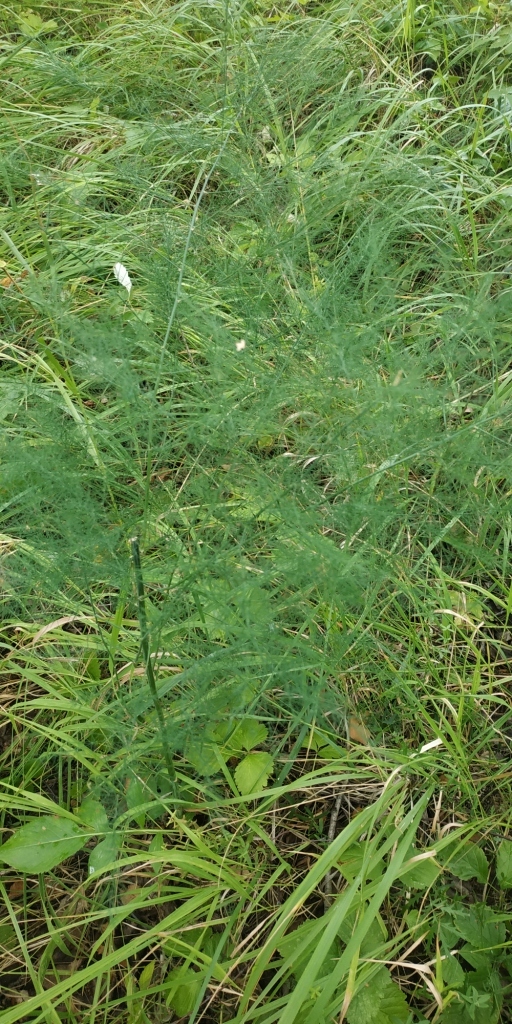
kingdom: Plantae
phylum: Tracheophyta
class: Liliopsida
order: Asparagales
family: Asparagaceae
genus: Asparagus
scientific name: Asparagus officinalis
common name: Garden asparagus
